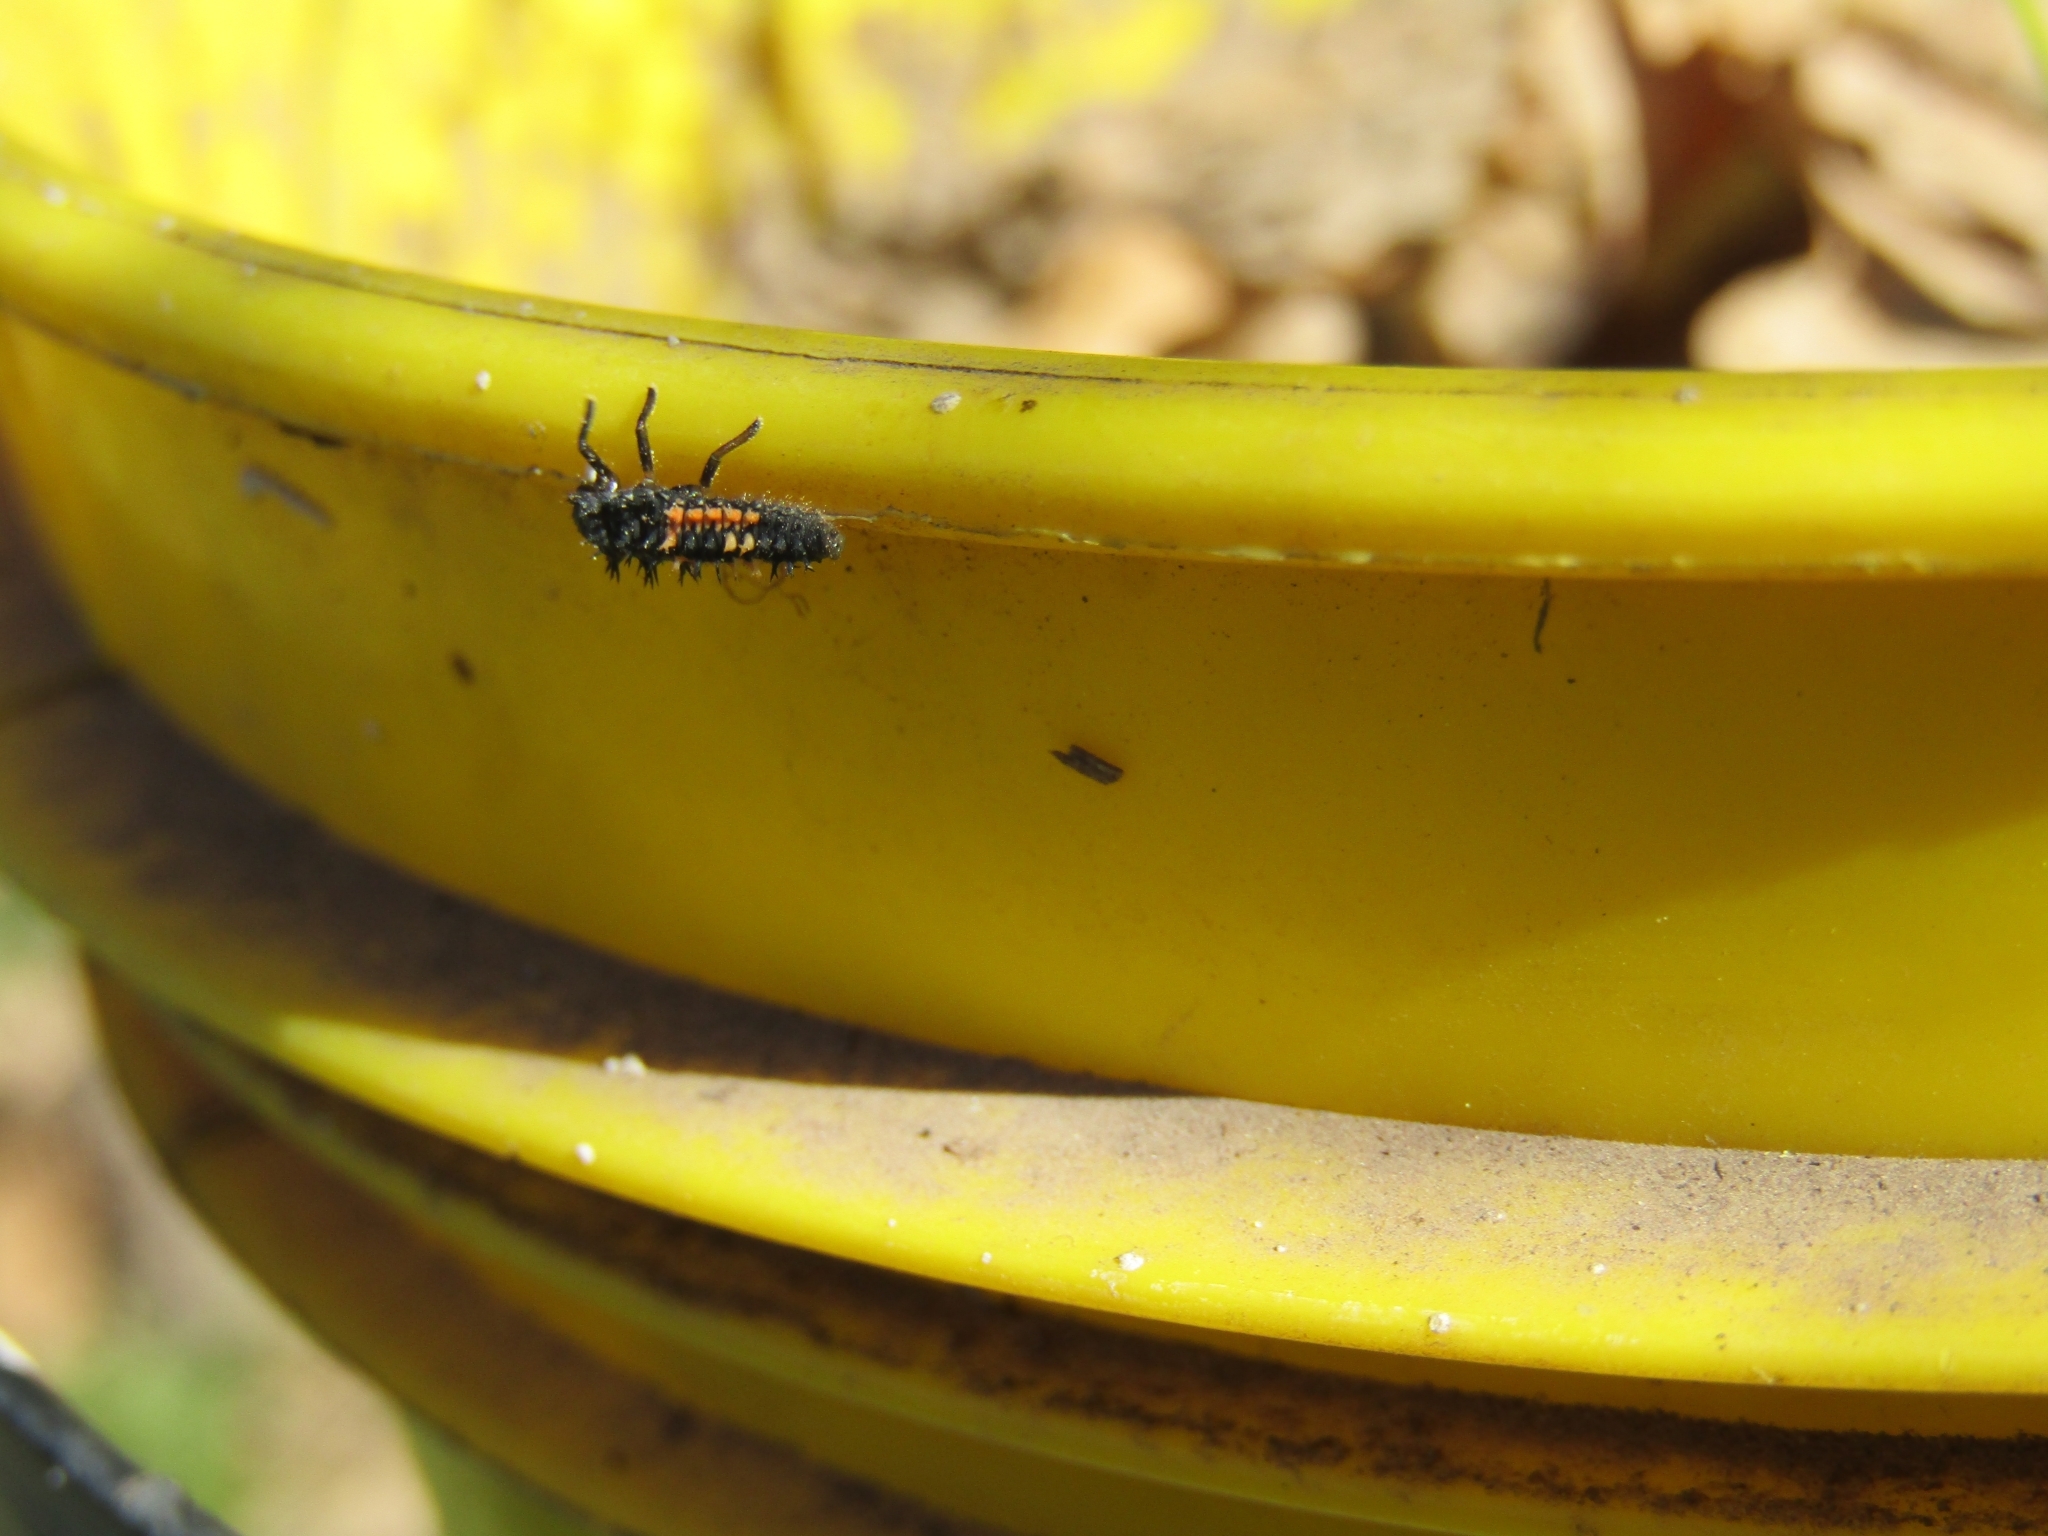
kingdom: Animalia
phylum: Arthropoda
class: Insecta
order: Coleoptera
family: Coccinellidae
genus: Harmonia
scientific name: Harmonia axyridis
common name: Harlequin ladybird
